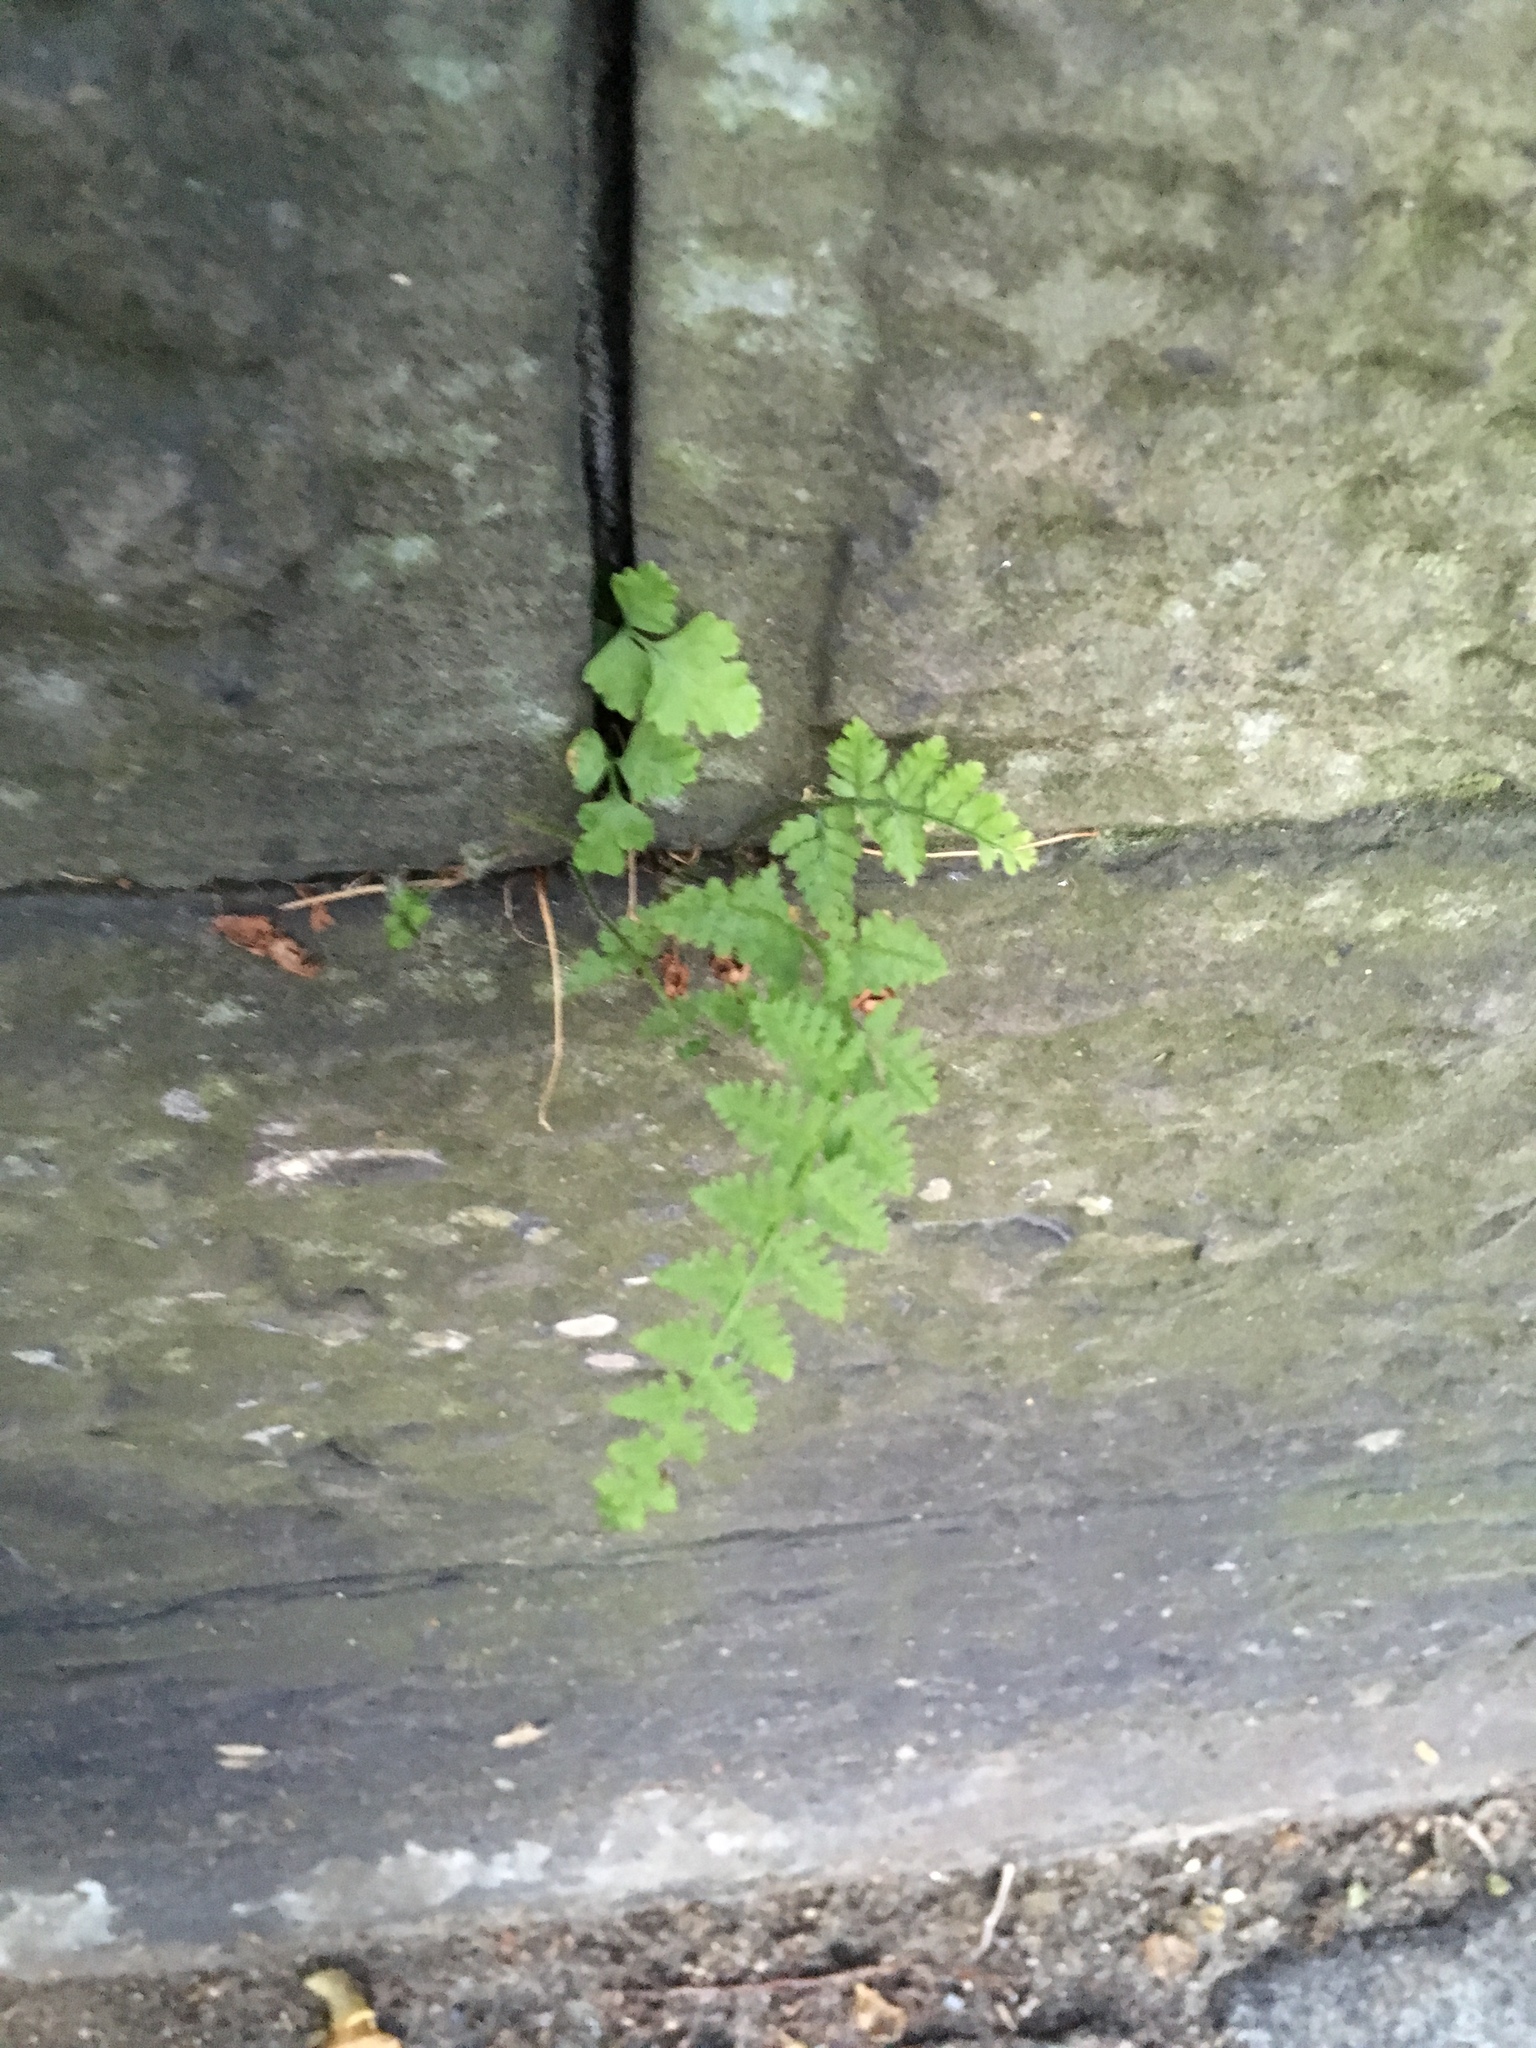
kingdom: Plantae
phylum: Tracheophyta
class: Polypodiopsida
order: Polypodiales
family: Woodsiaceae
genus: Physematium
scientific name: Physematium obtusum
